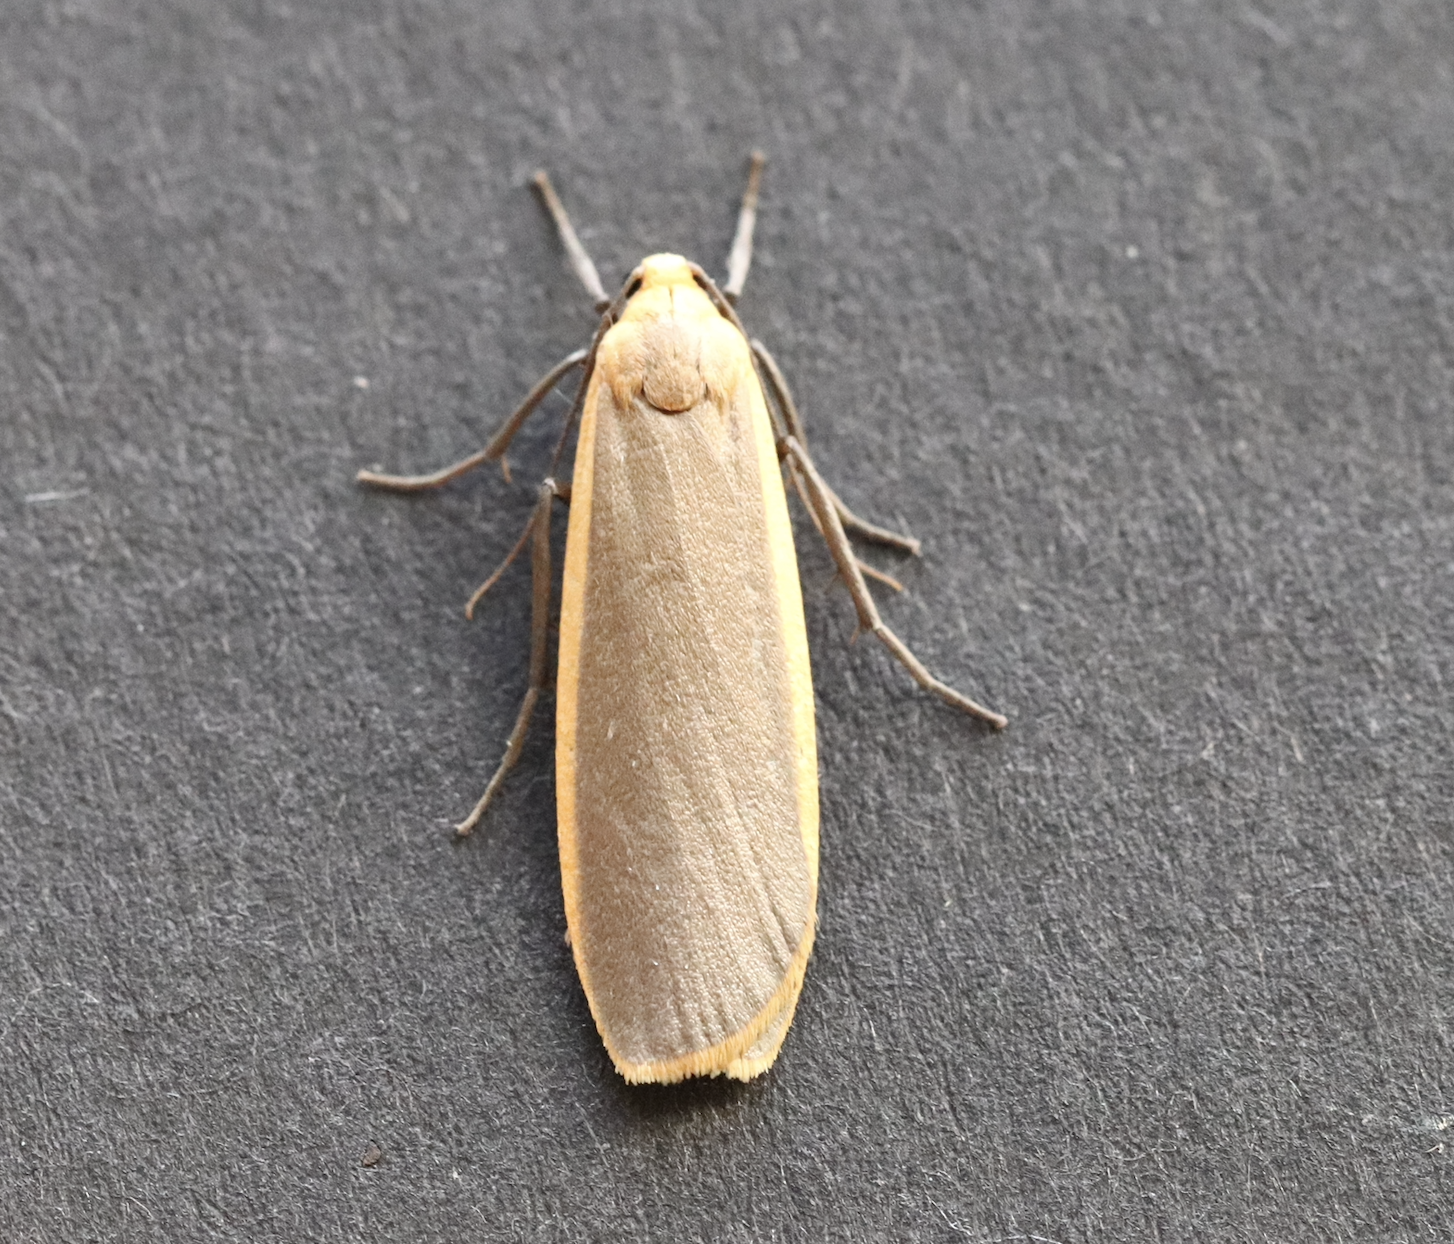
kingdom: Animalia
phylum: Arthropoda
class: Insecta
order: Lepidoptera
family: Erebidae
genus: Katha
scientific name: Katha depressa
